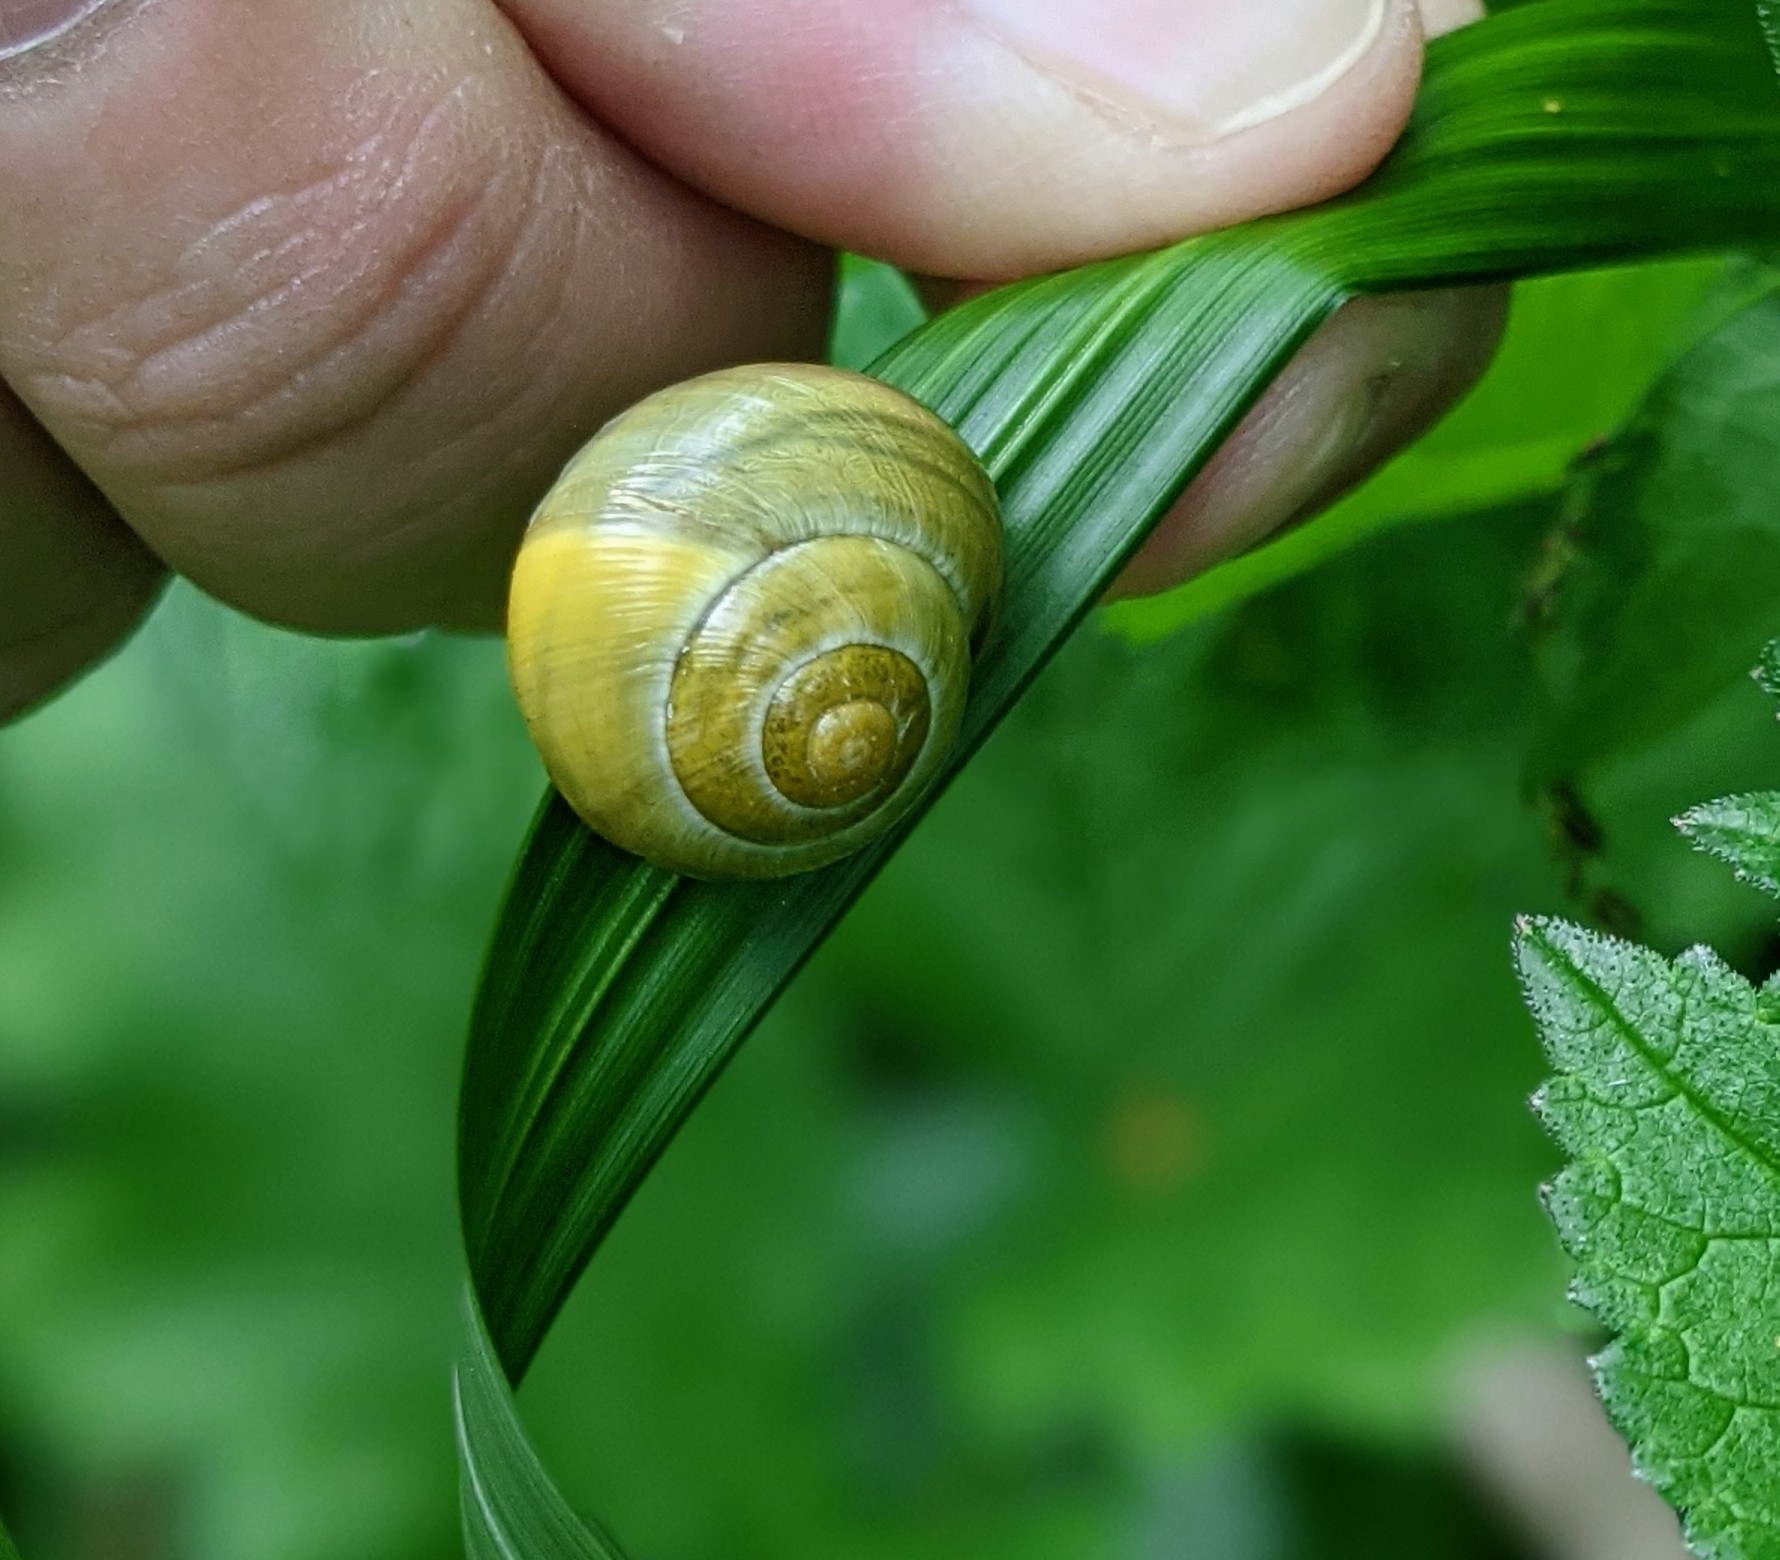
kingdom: Animalia
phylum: Mollusca
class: Gastropoda
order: Stylommatophora
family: Helicidae
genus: Cepaea
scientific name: Cepaea
